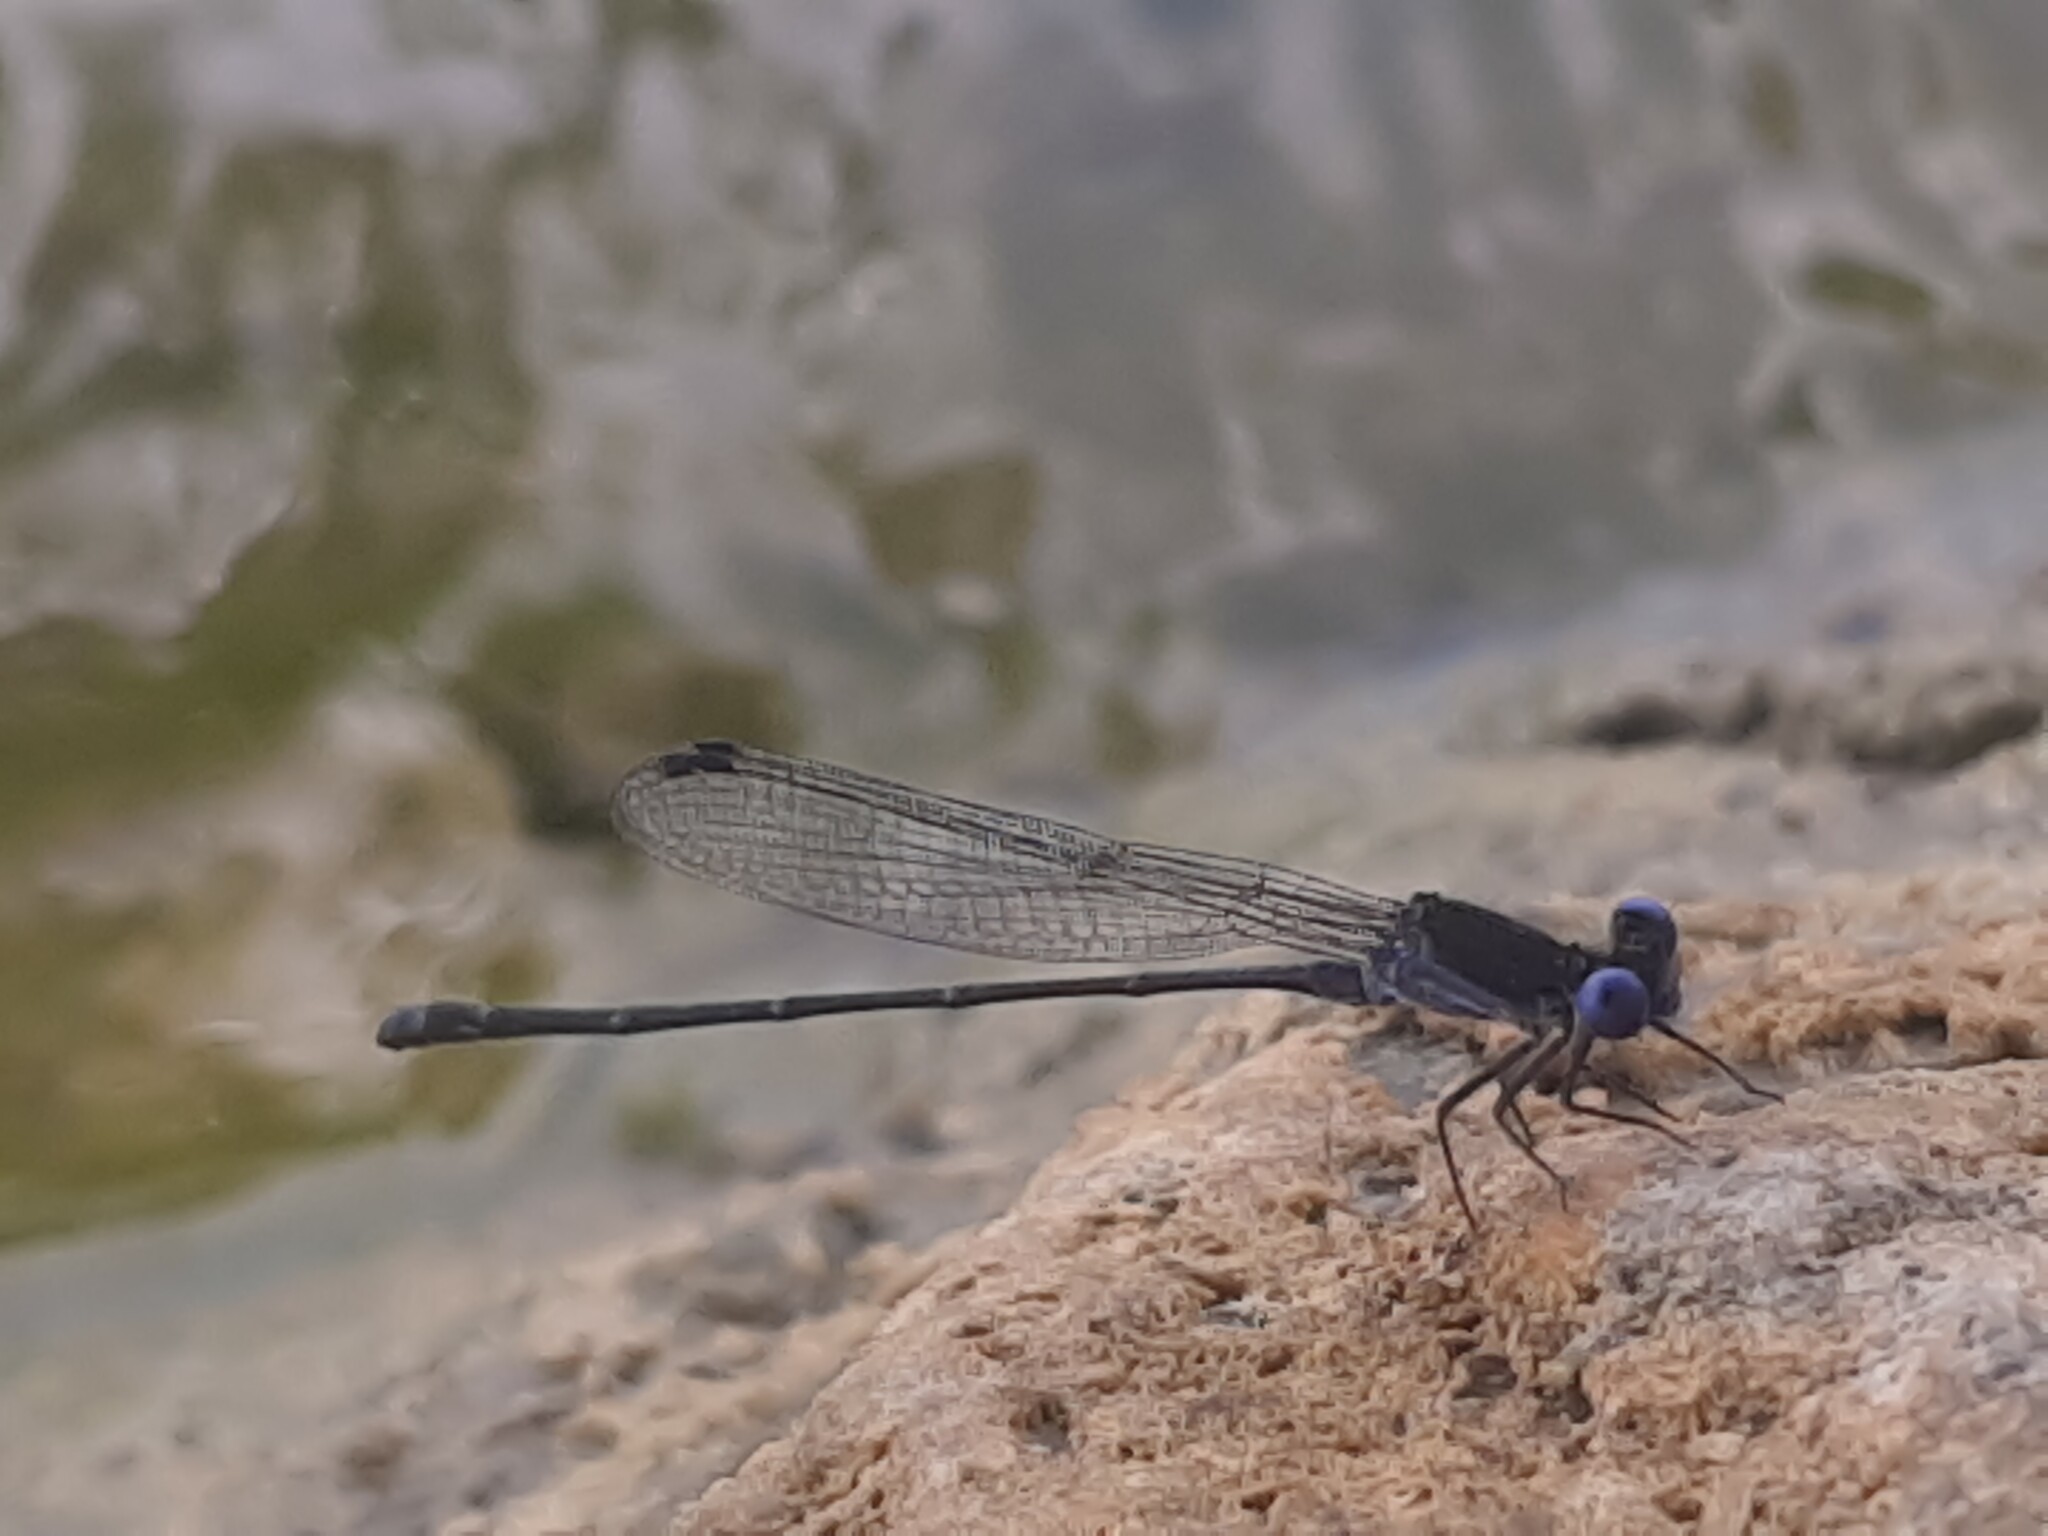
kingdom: Animalia
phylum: Arthropoda
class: Insecta
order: Odonata
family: Coenagrionidae
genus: Argia
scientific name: Argia translata
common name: Dusky dancer
